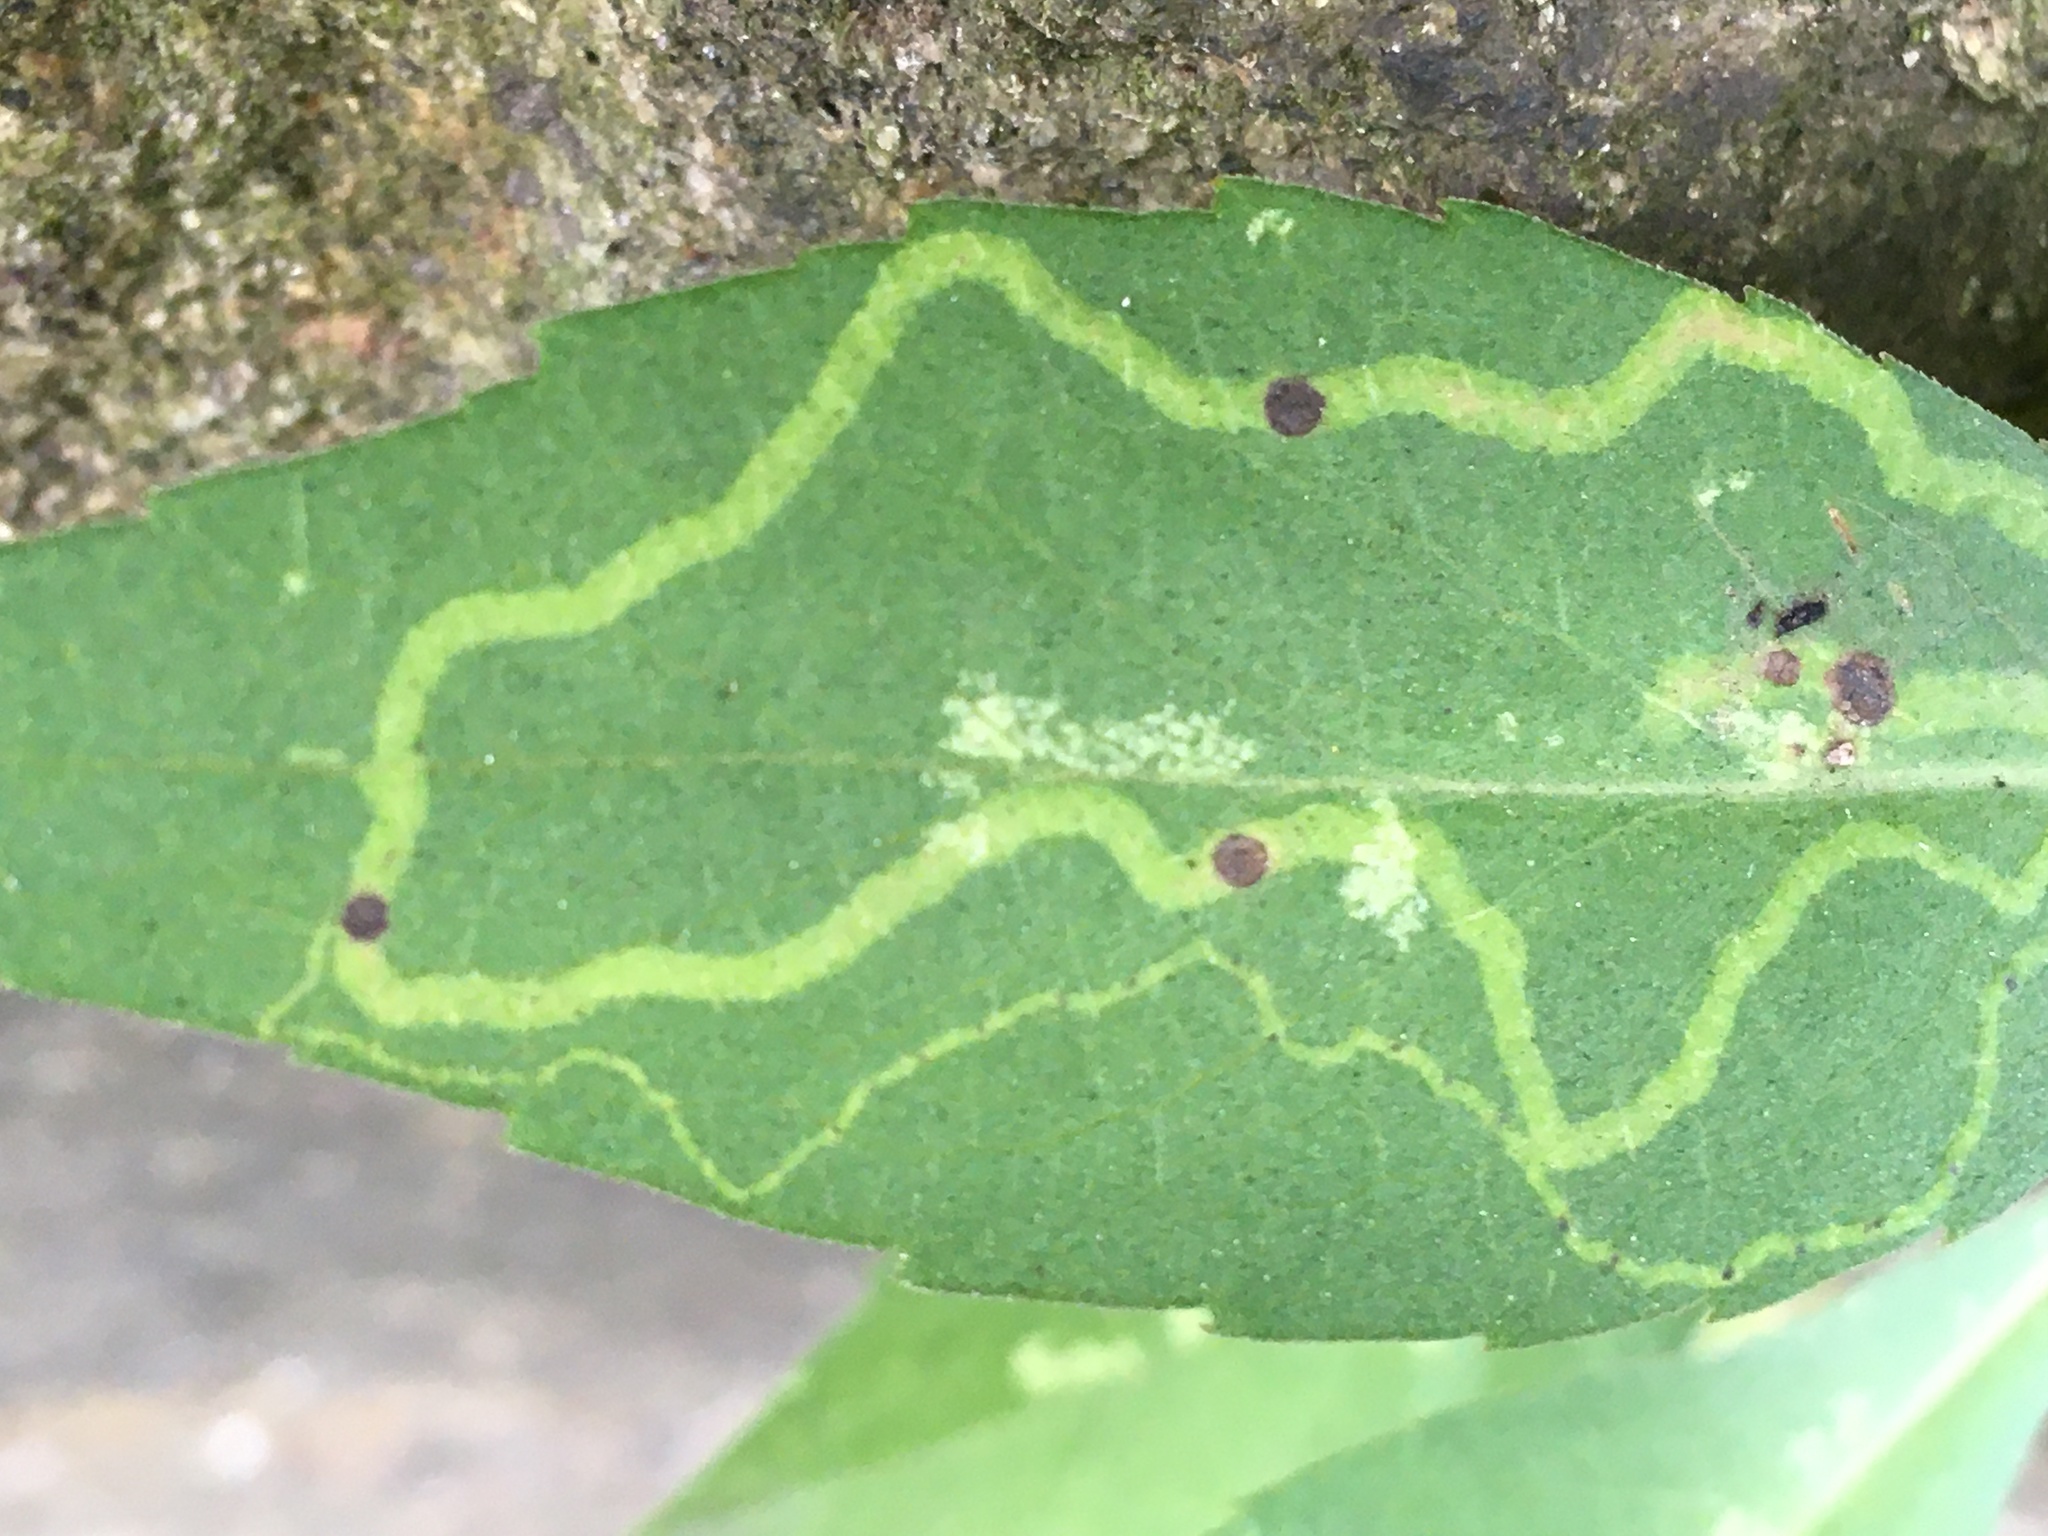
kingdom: Animalia
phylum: Arthropoda
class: Insecta
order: Diptera
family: Agromyzidae
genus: Ophiomyia
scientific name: Ophiomyia parda
